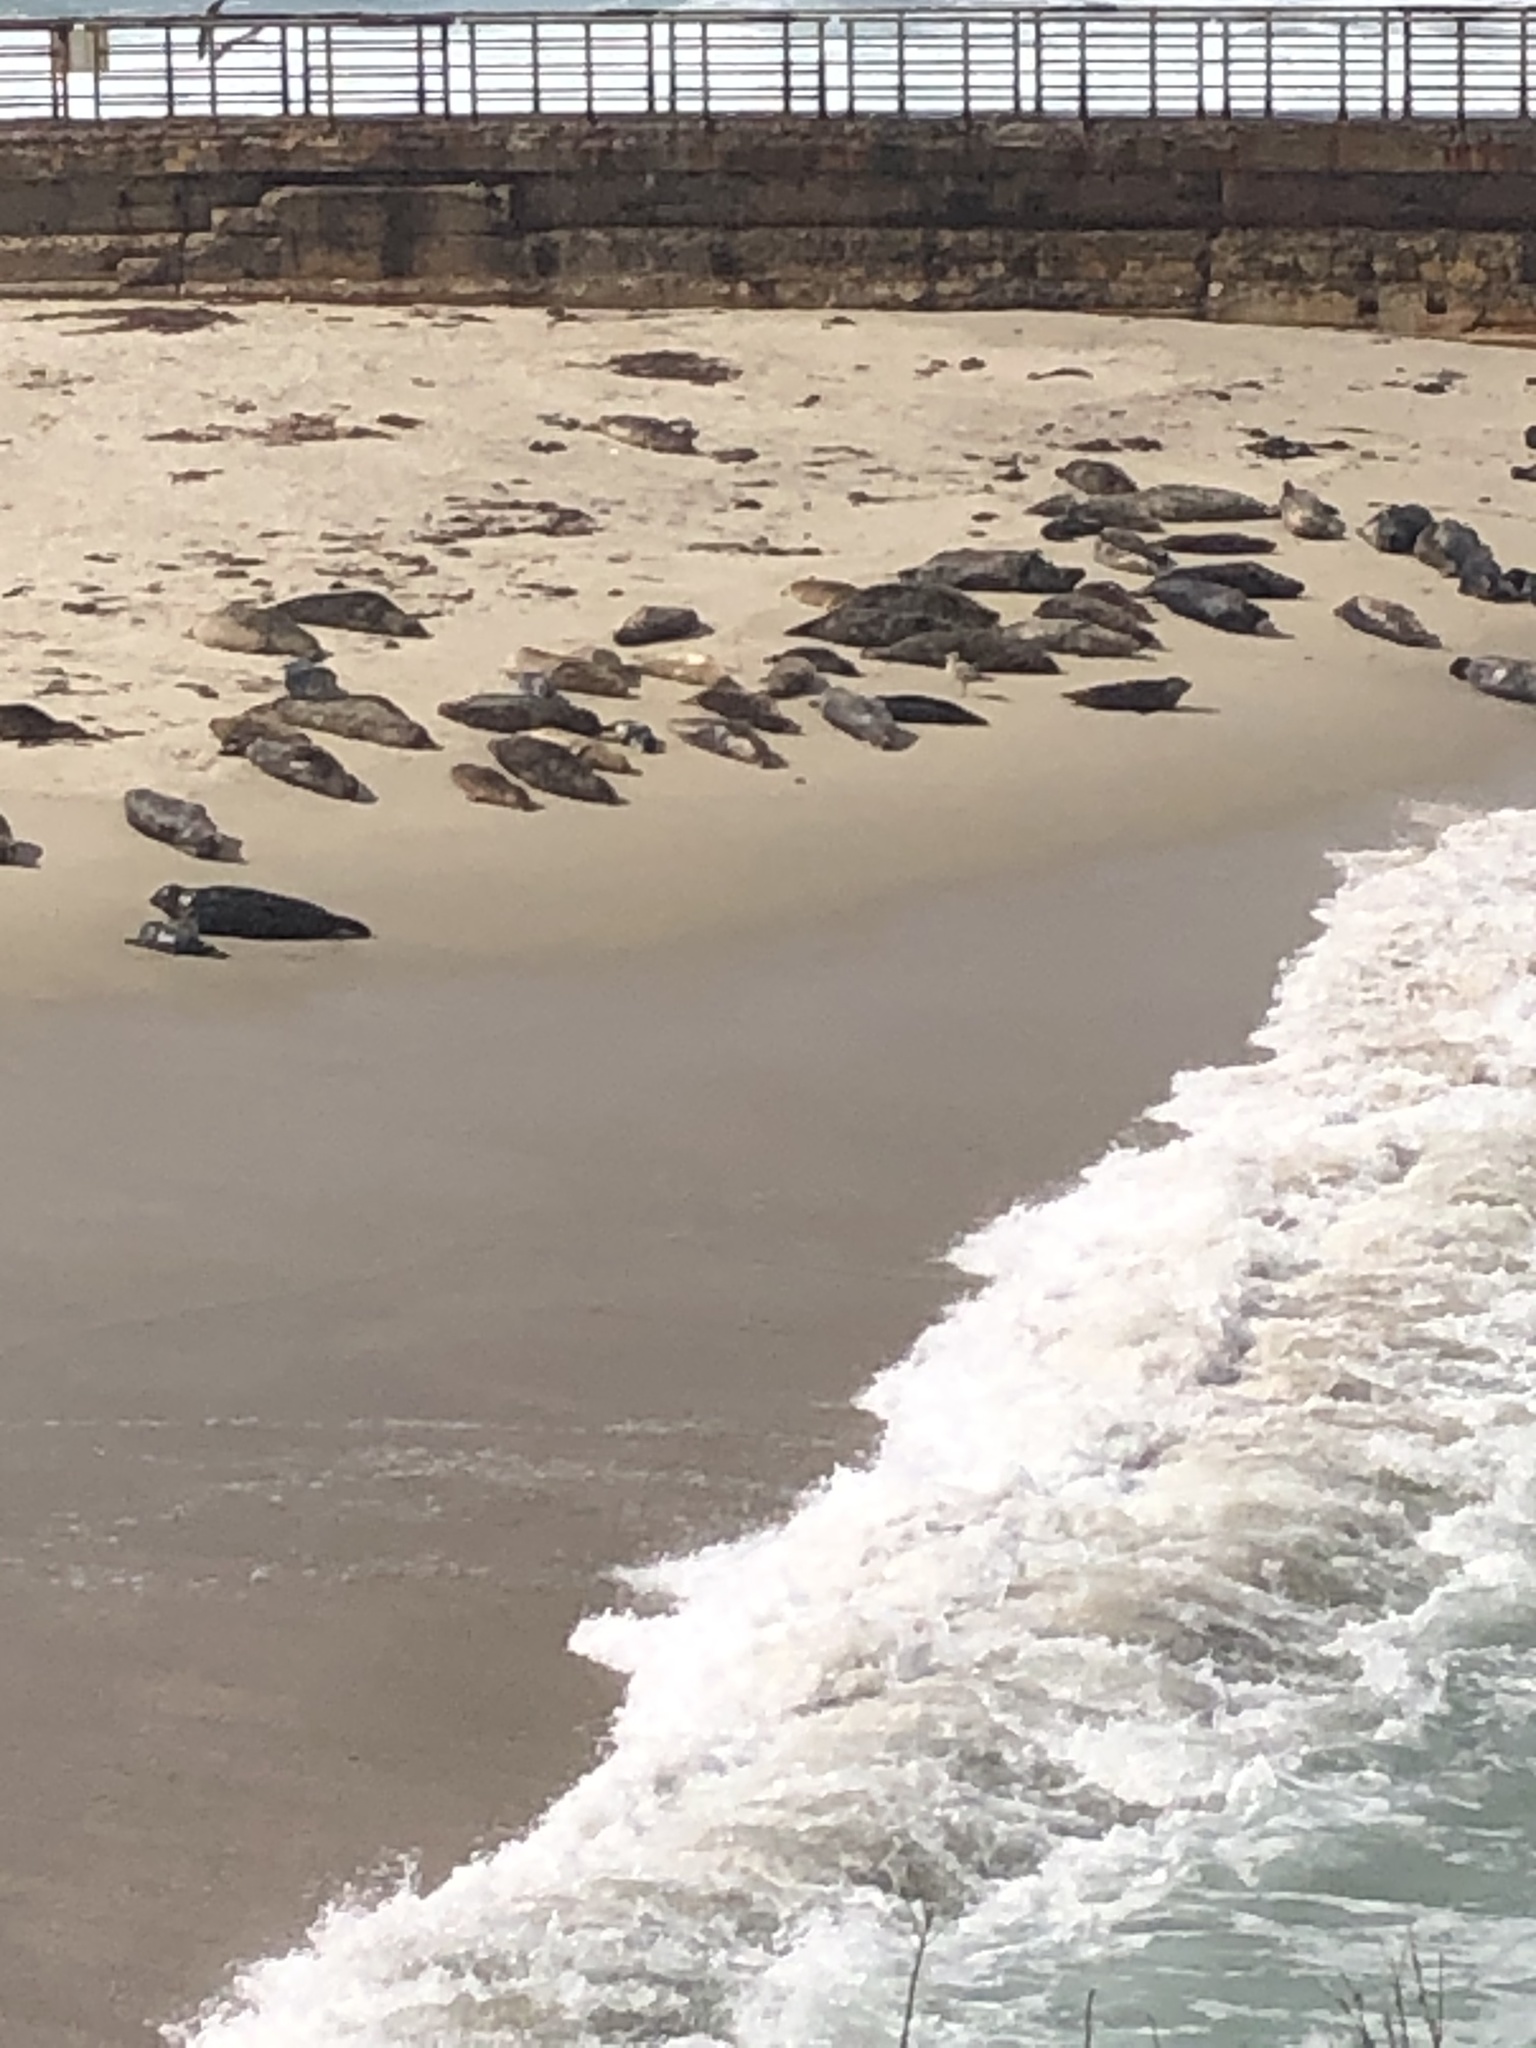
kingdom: Animalia
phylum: Chordata
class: Mammalia
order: Carnivora
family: Phocidae
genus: Phoca
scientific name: Phoca vitulina
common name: Harbor seal
